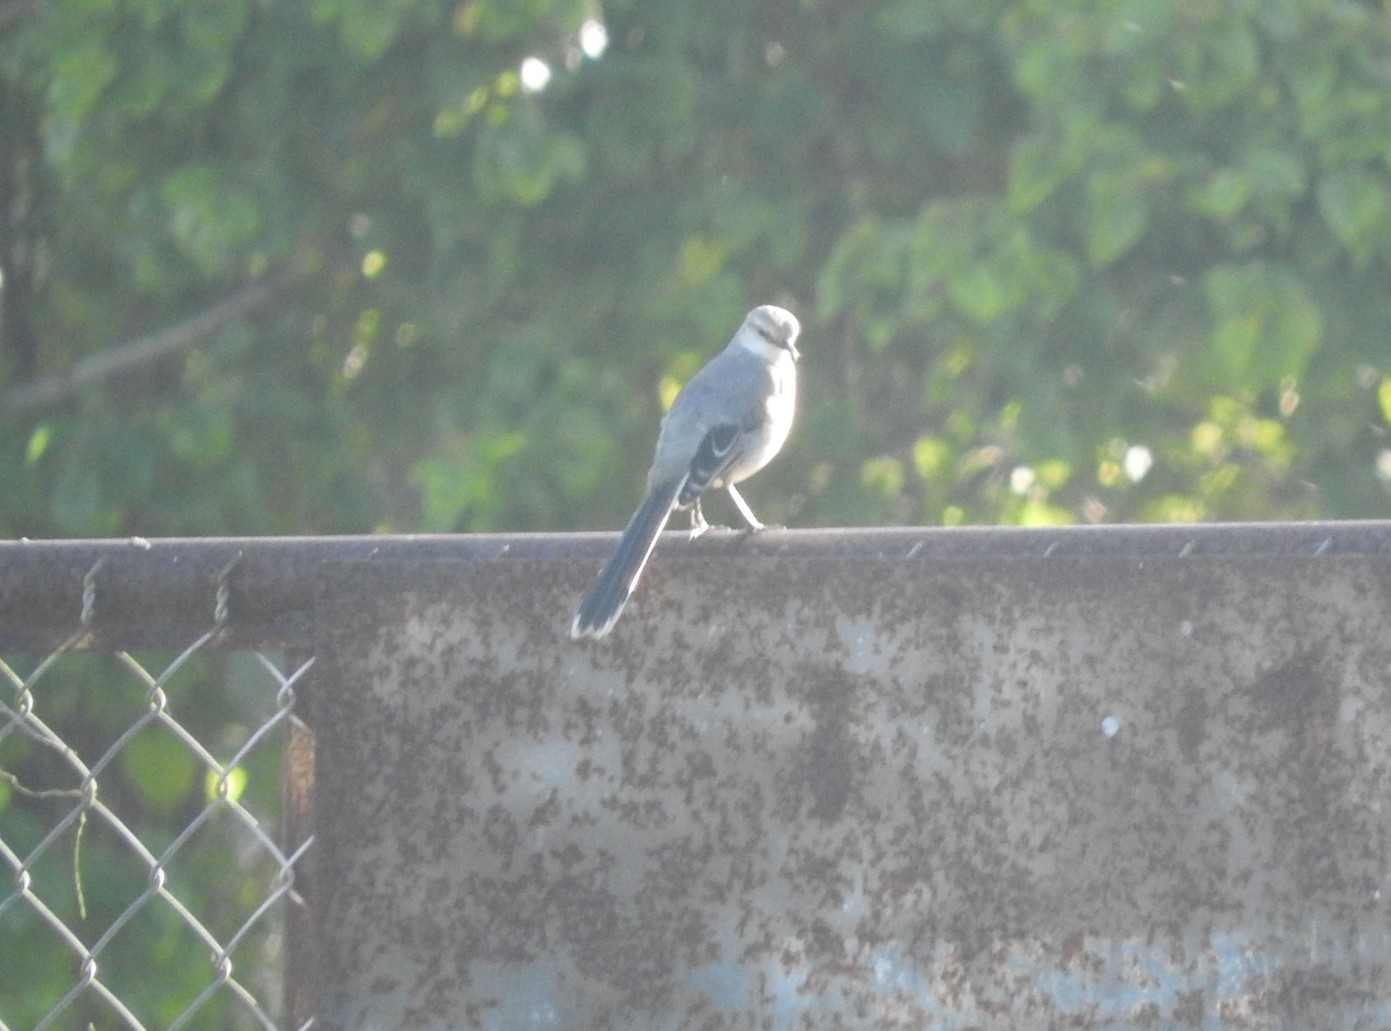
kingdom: Animalia
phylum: Chordata
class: Aves
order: Passeriformes
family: Mimidae
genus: Mimus
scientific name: Mimus gilvus
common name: Tropical mockingbird
